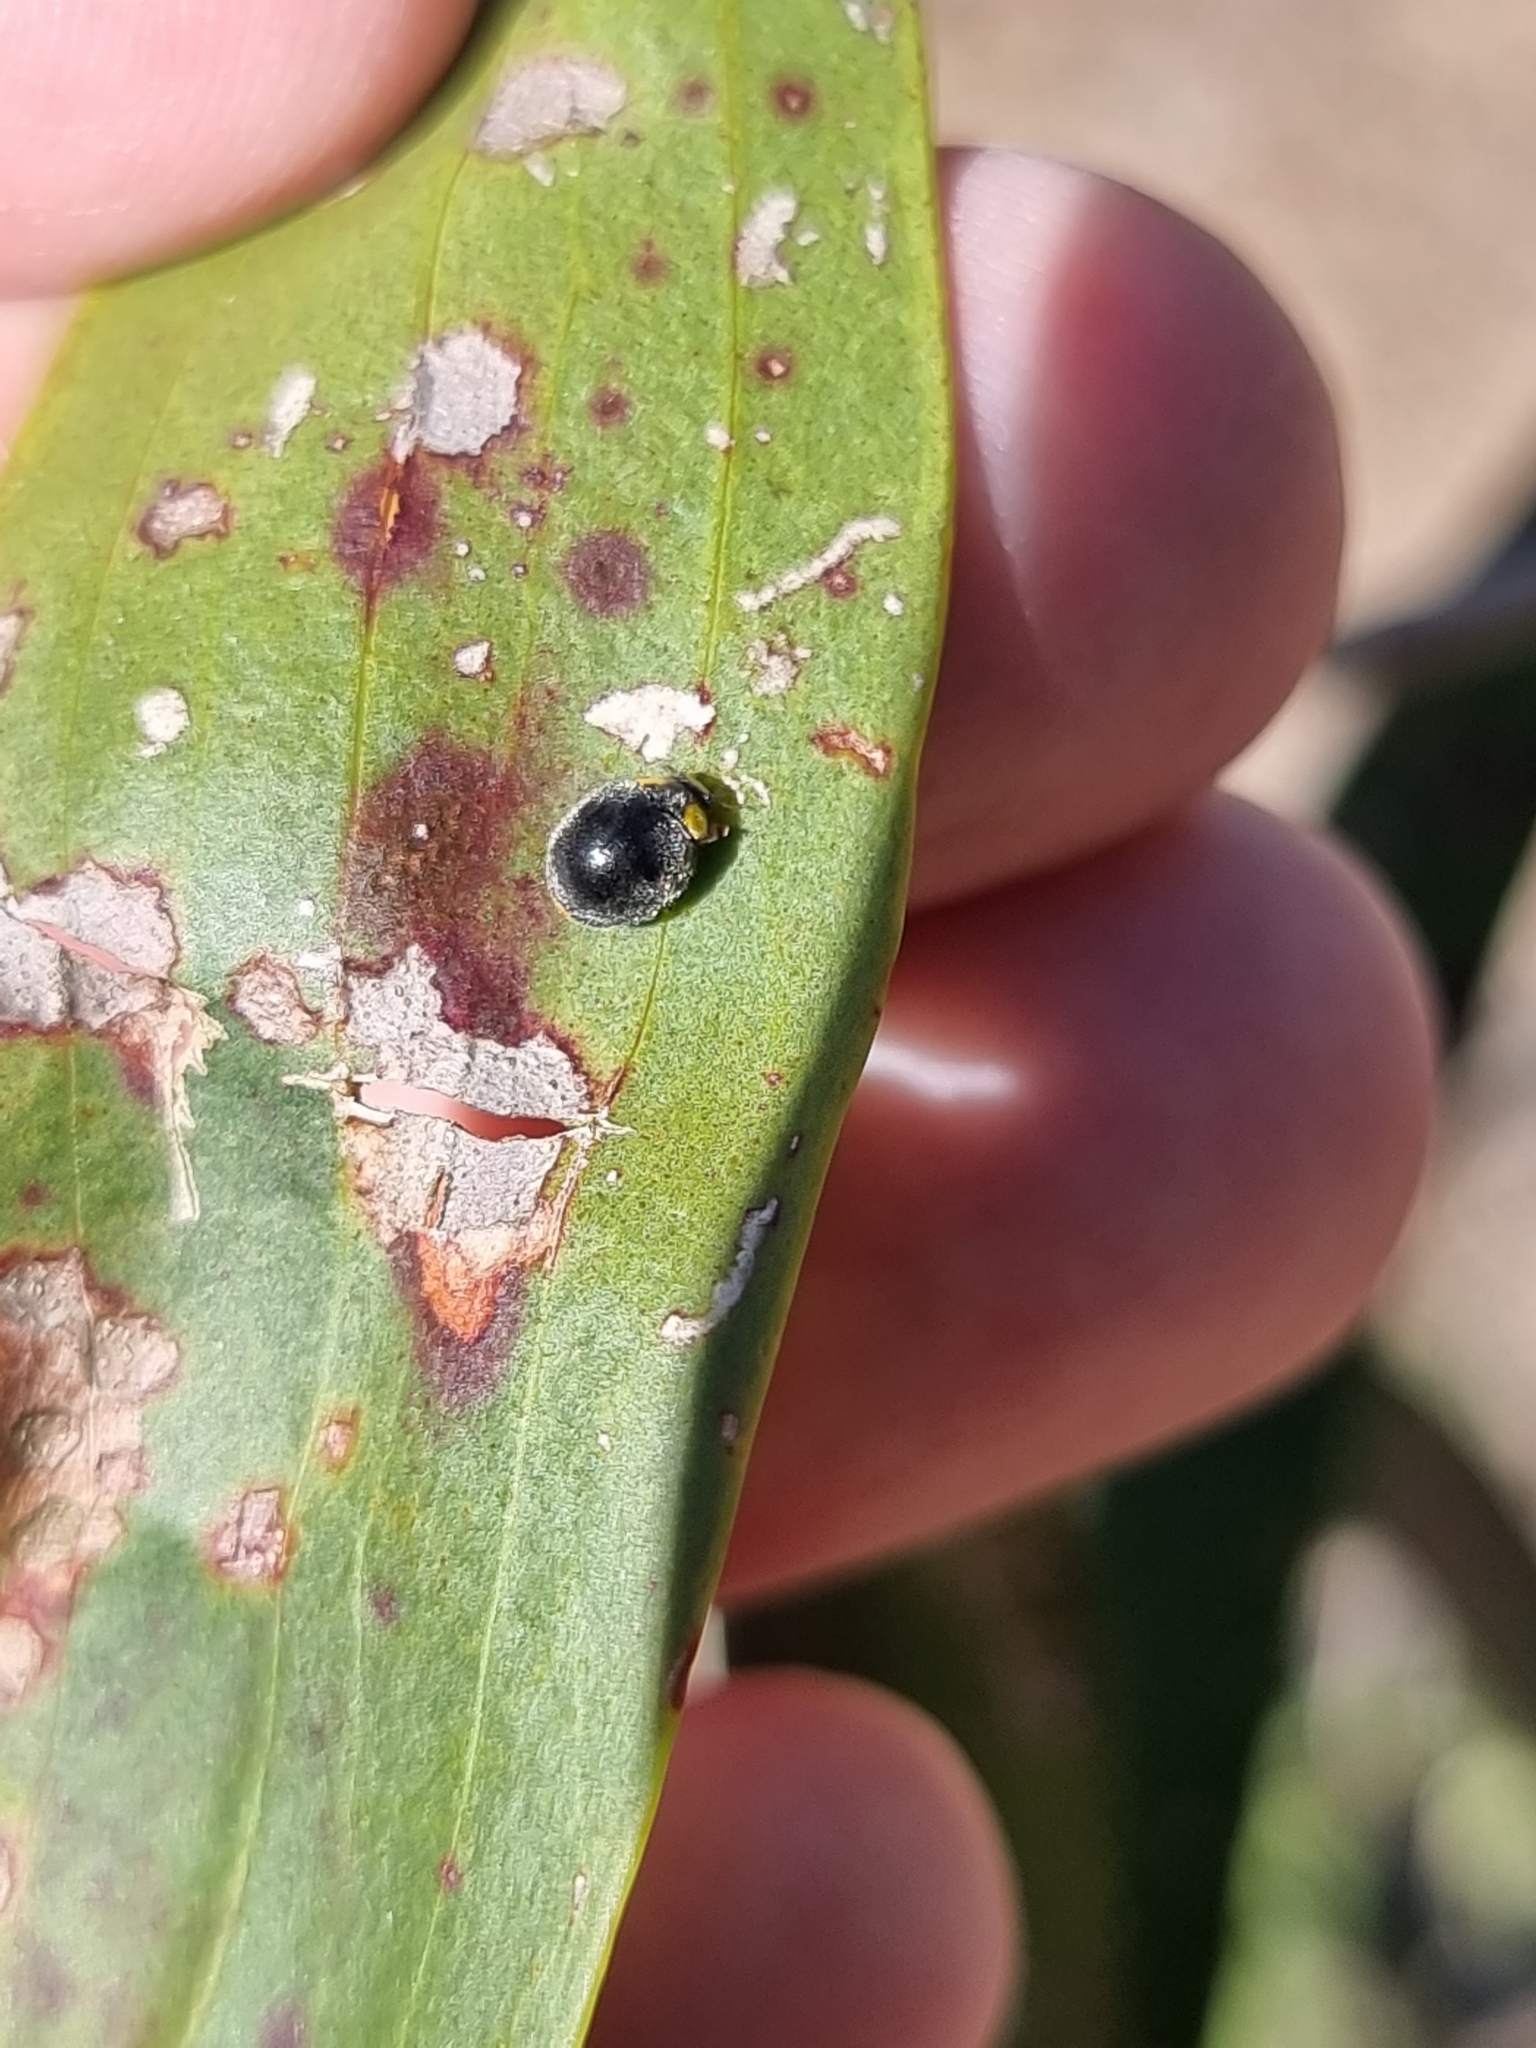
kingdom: Animalia
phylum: Arthropoda
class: Insecta
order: Coleoptera
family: Coccinellidae
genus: Scymnodes
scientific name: Scymnodes lividigaster
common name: Yellowshouldered lady beetle
